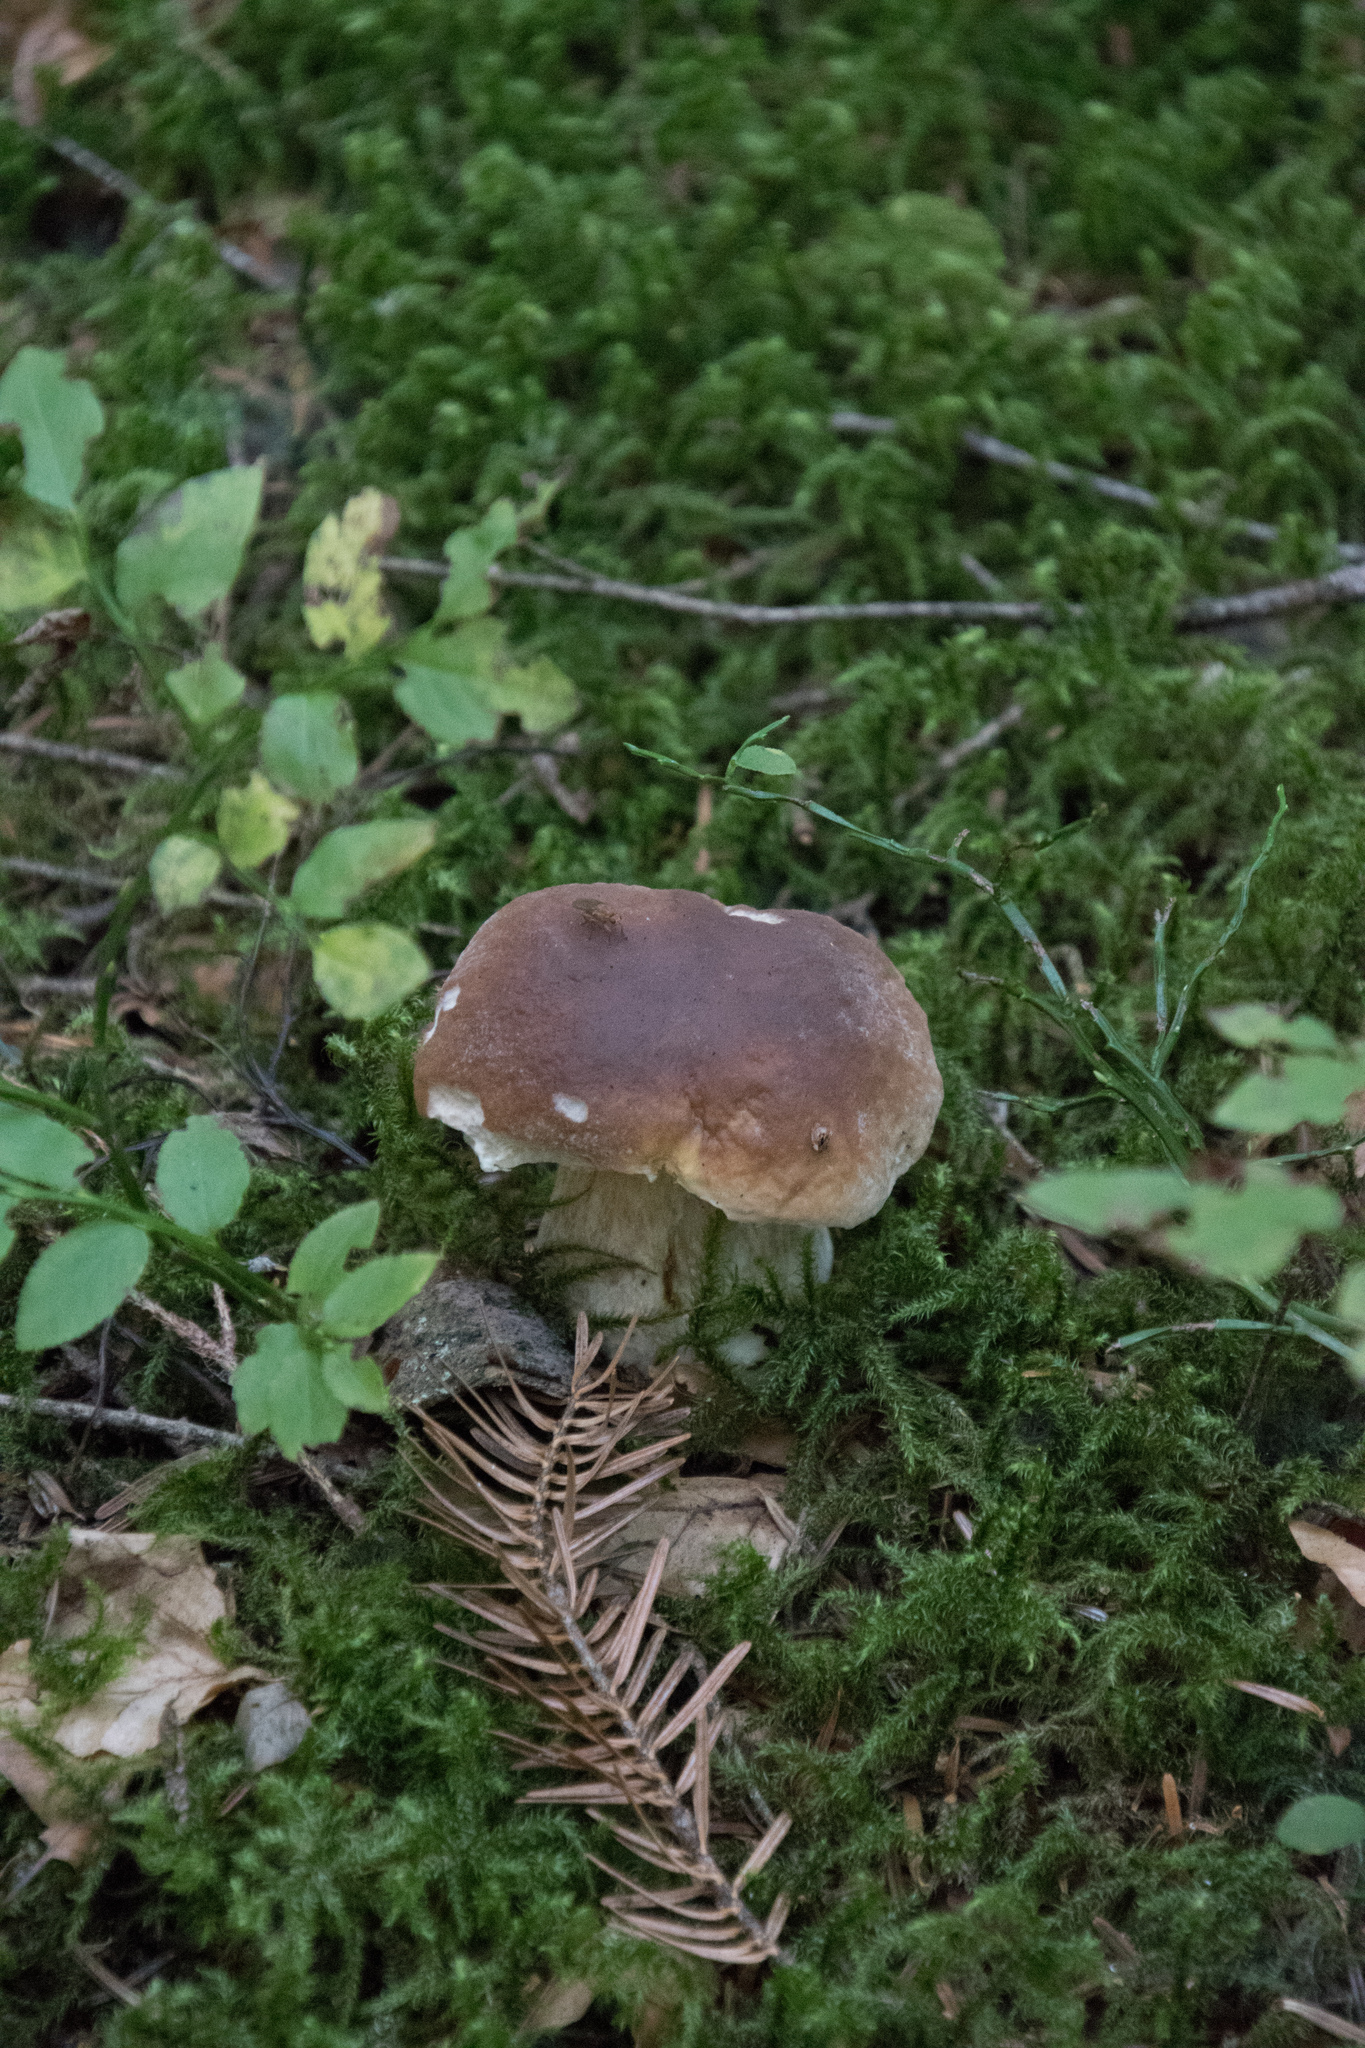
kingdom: Fungi
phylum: Basidiomycota
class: Agaricomycetes
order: Boletales
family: Boletaceae
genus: Boletus
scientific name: Boletus edulis
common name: Cep
